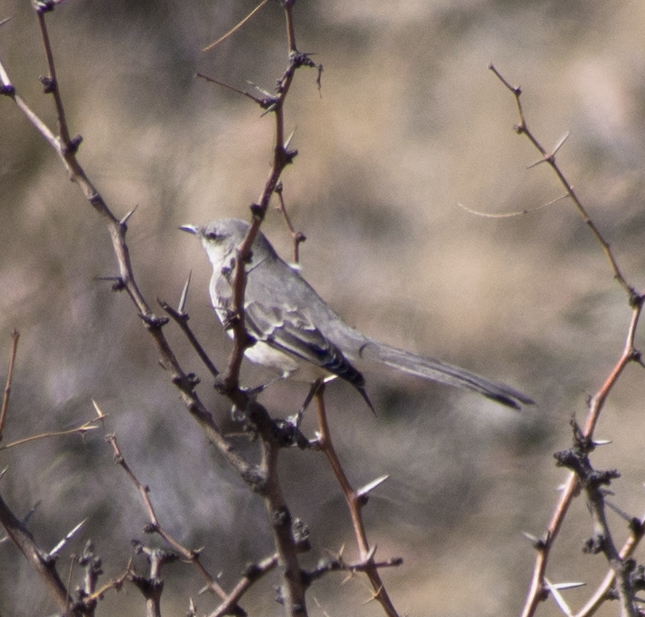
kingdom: Animalia
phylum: Chordata
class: Aves
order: Passeriformes
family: Mimidae
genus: Mimus
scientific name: Mimus polyglottos
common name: Northern mockingbird
